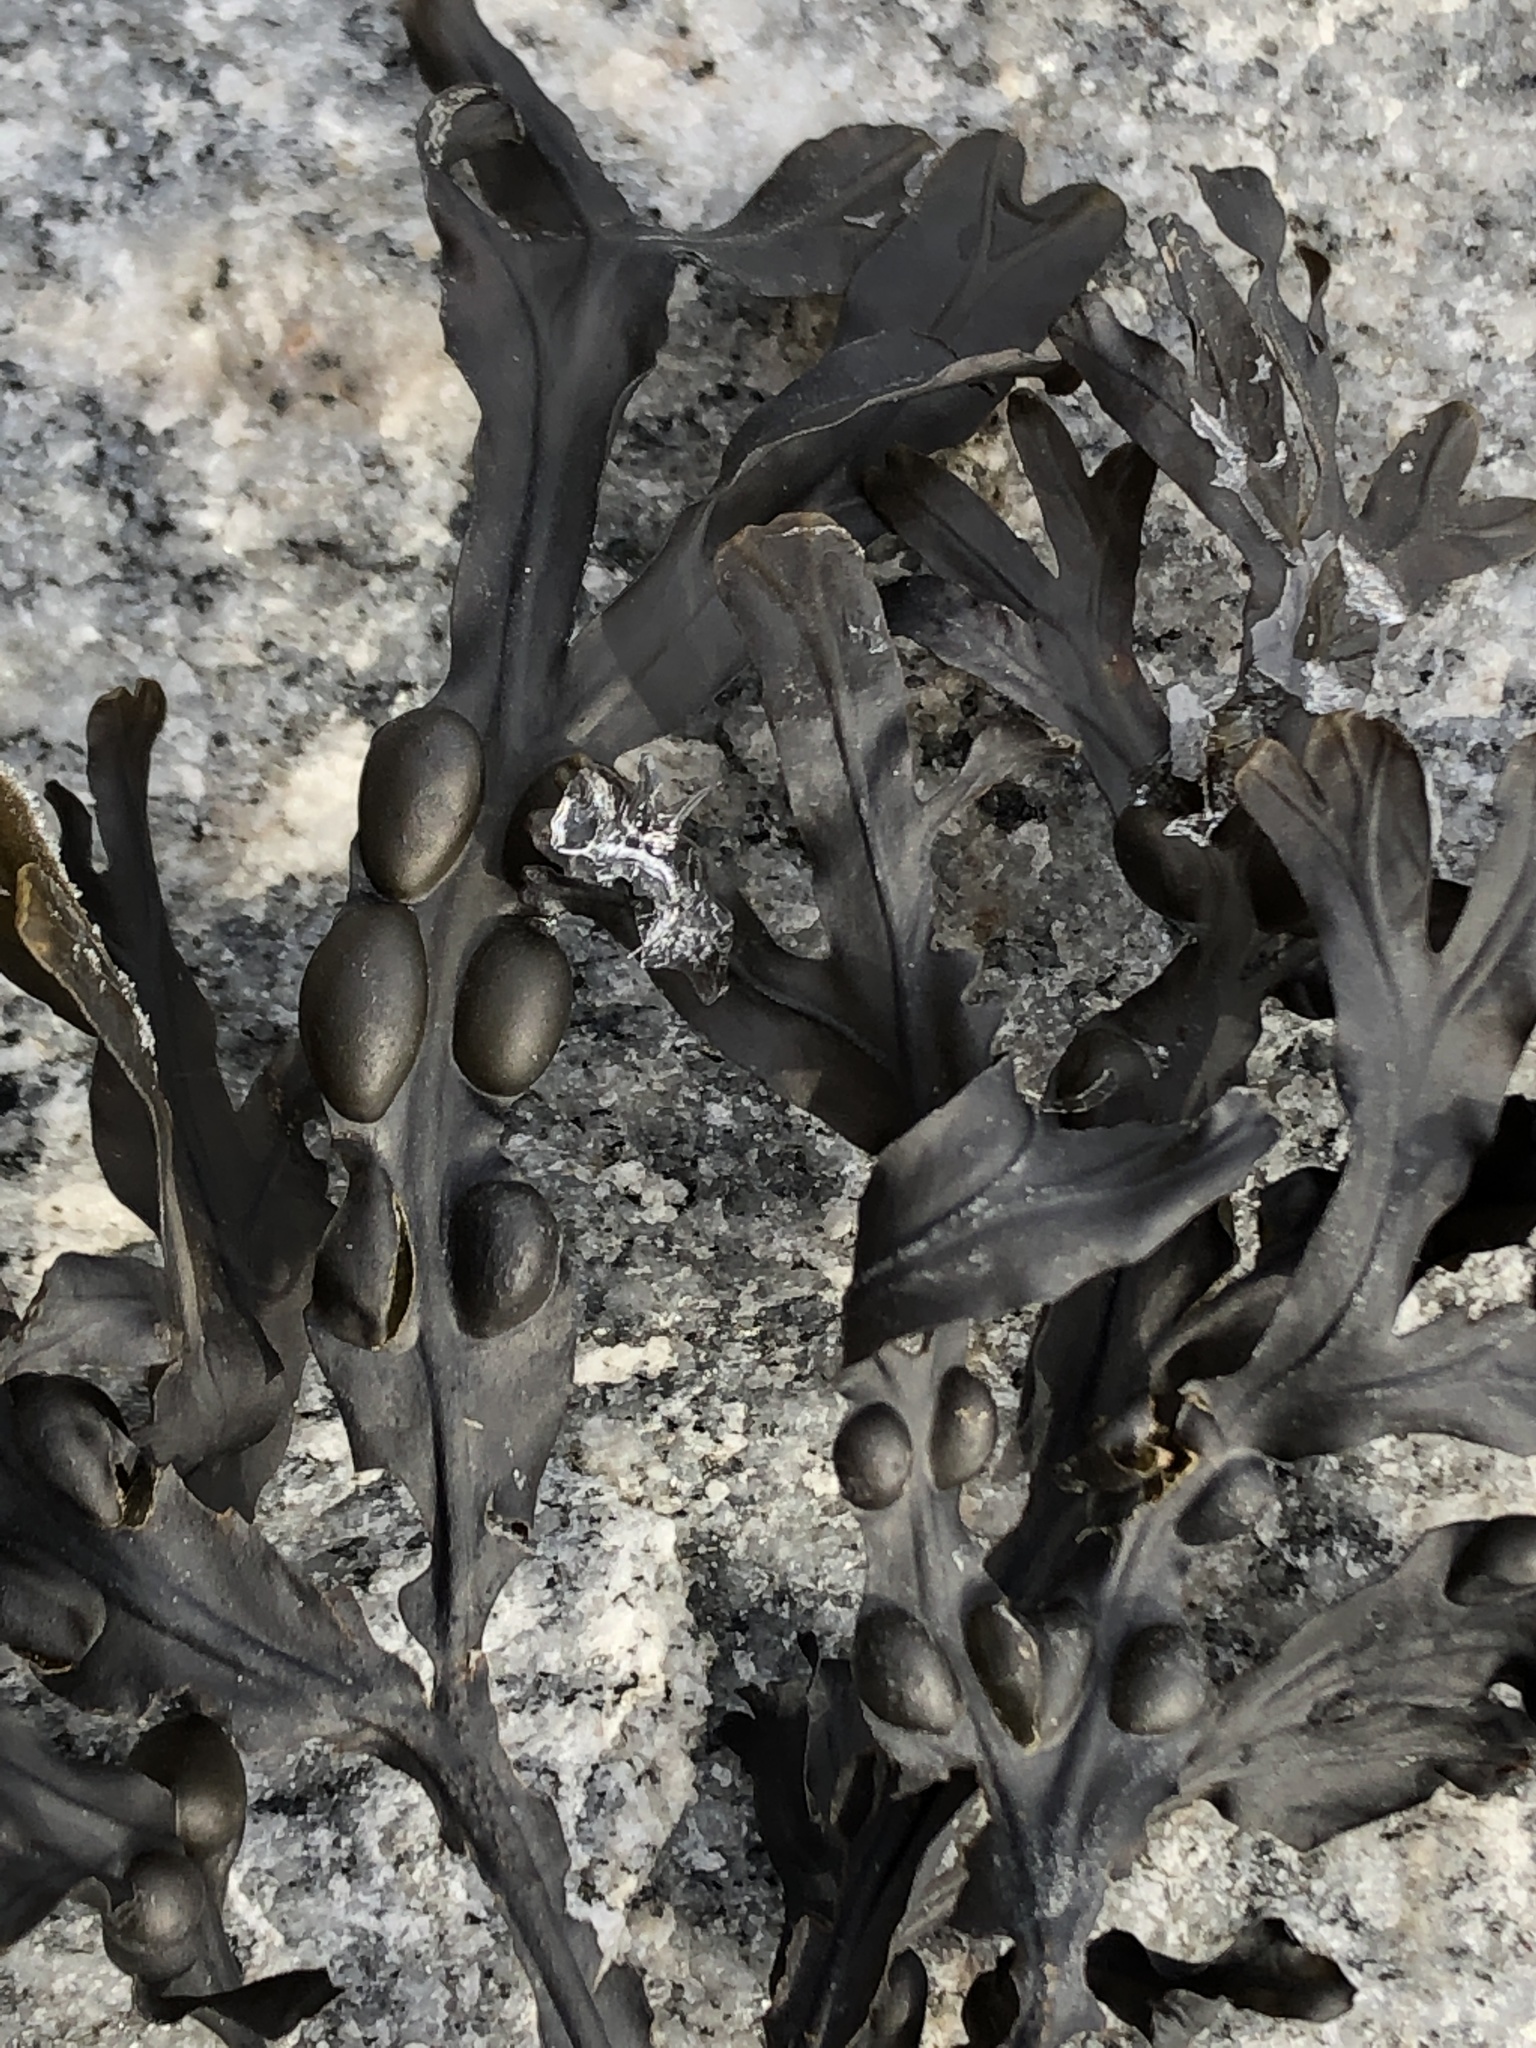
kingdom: Chromista
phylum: Ochrophyta
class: Phaeophyceae
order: Fucales
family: Fucaceae
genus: Fucus
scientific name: Fucus vesiculosus
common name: Bladder wrack
